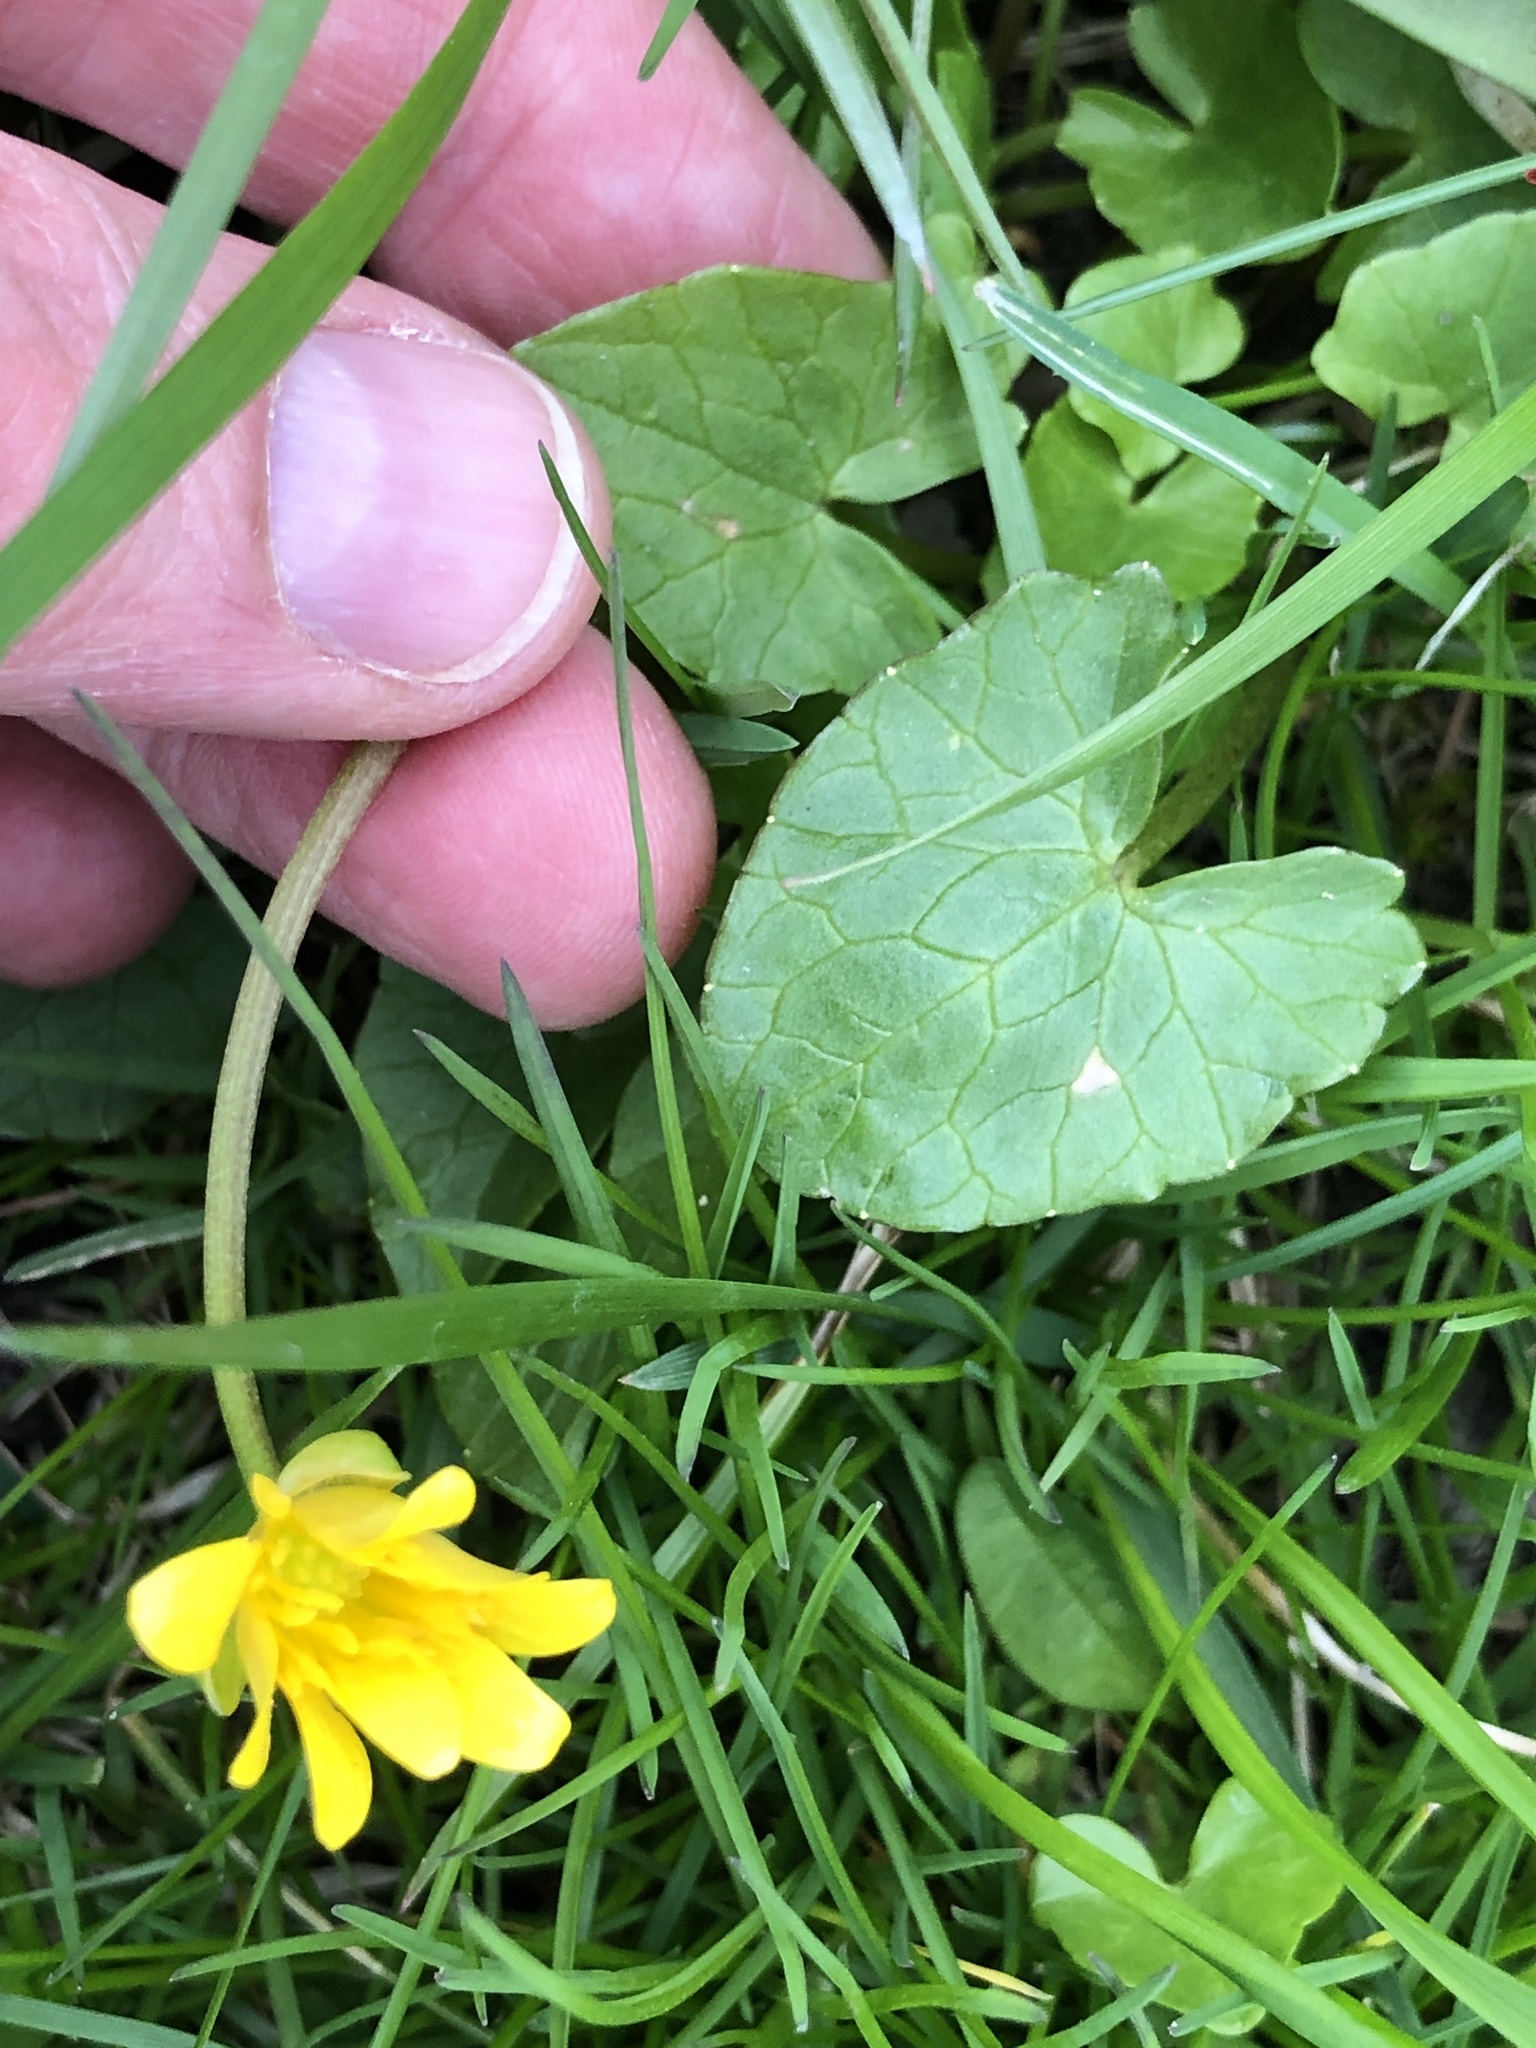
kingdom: Plantae
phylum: Tracheophyta
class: Magnoliopsida
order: Ranunculales
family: Ranunculaceae
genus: Ficaria
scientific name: Ficaria verna
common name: Lesser celandine
